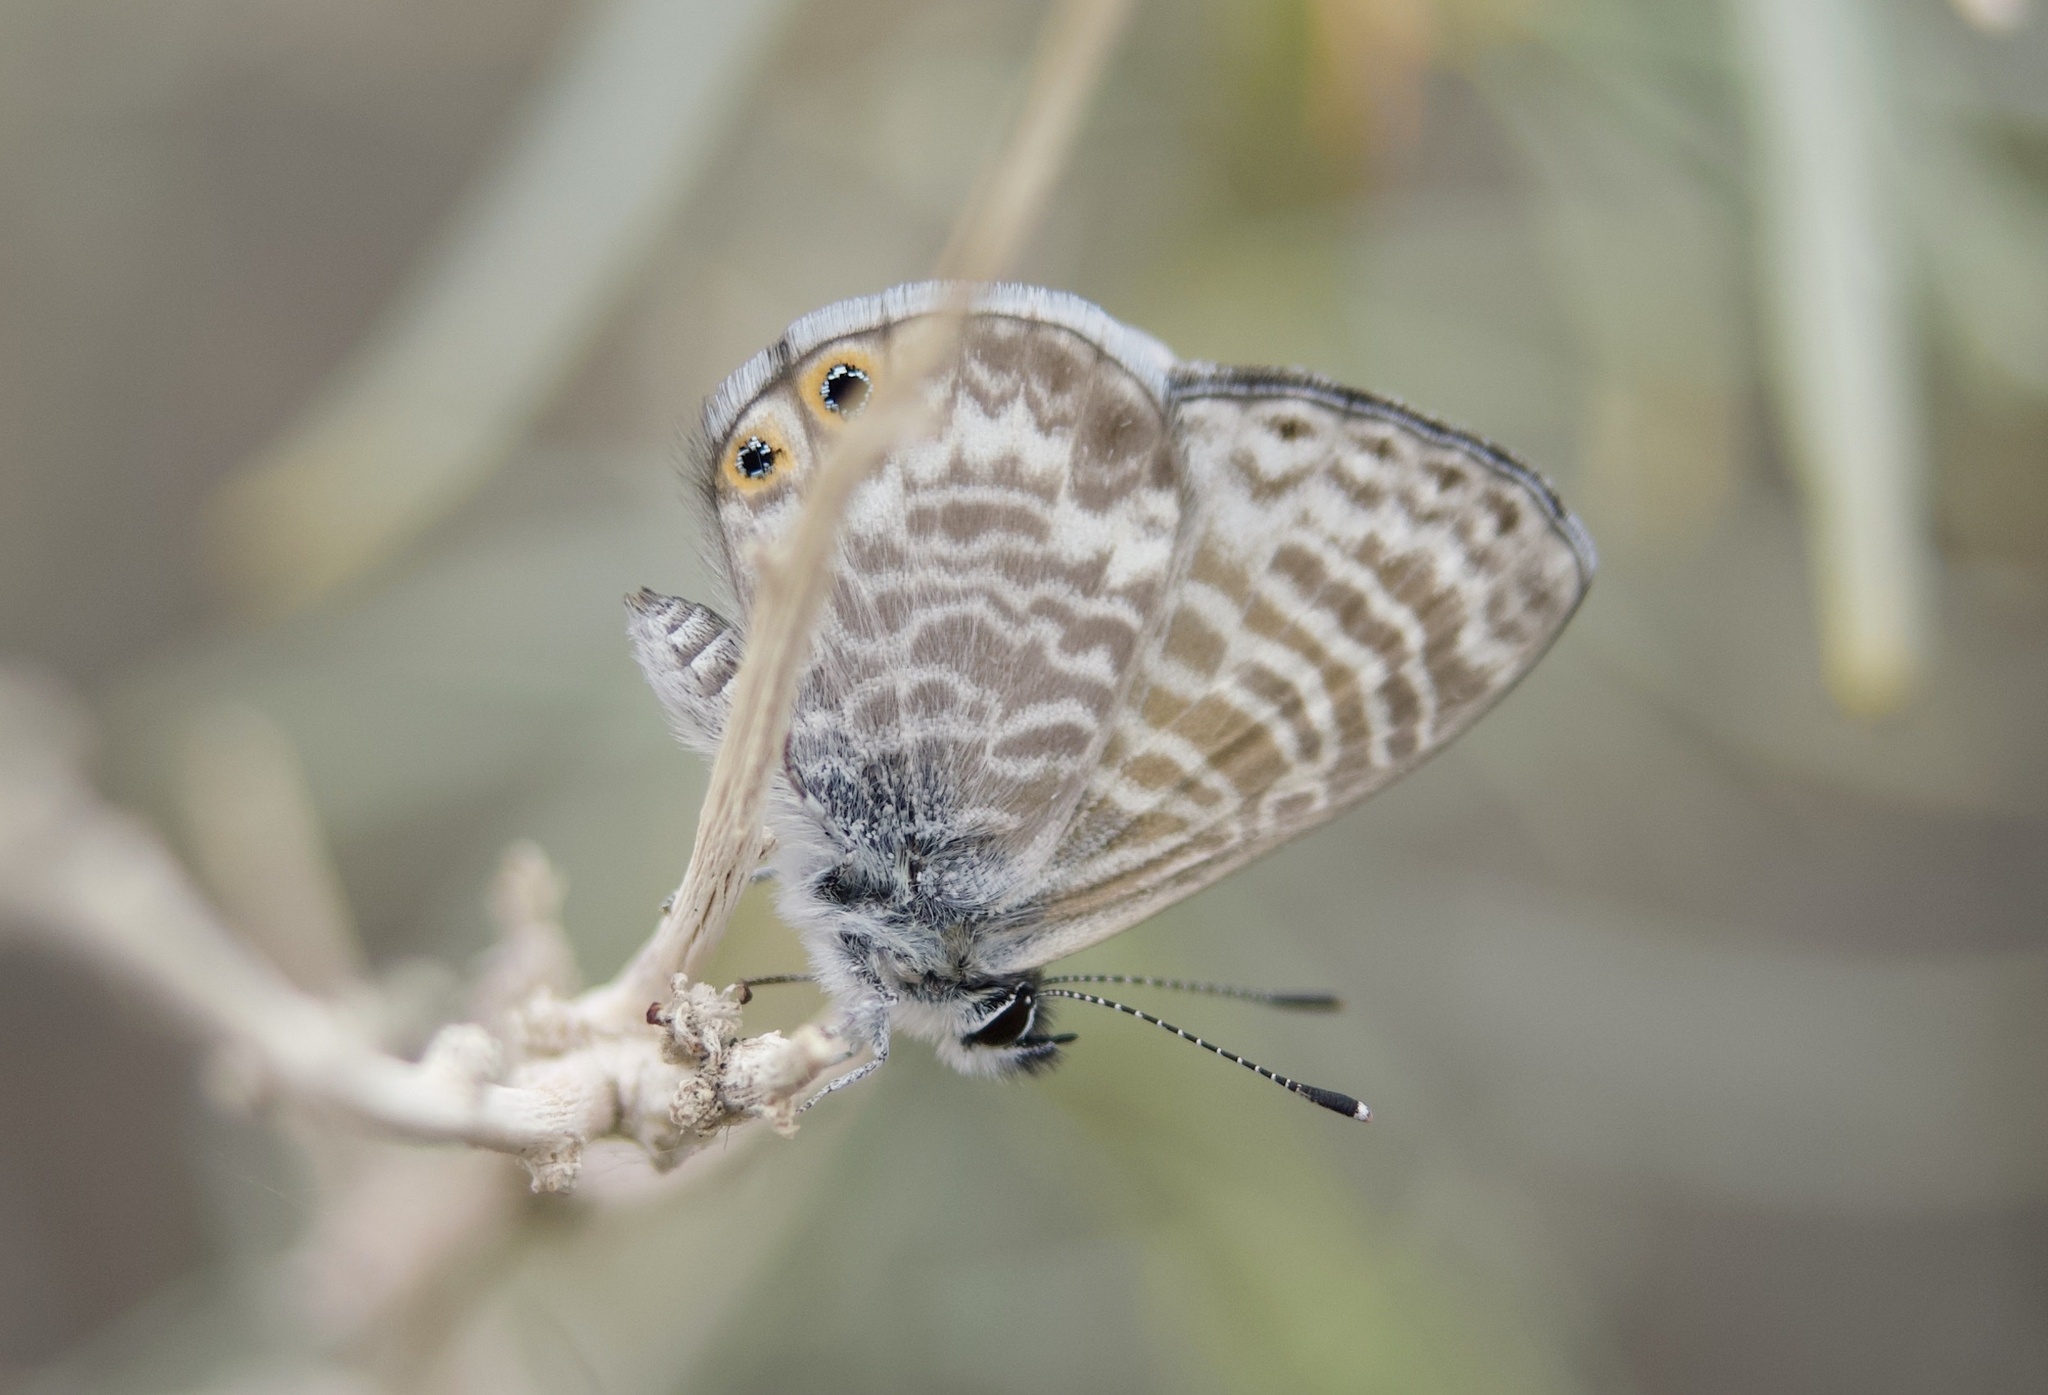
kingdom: Animalia
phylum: Arthropoda
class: Insecta
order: Lepidoptera
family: Lycaenidae
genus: Leptotes
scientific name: Leptotes marina
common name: Marine blue
